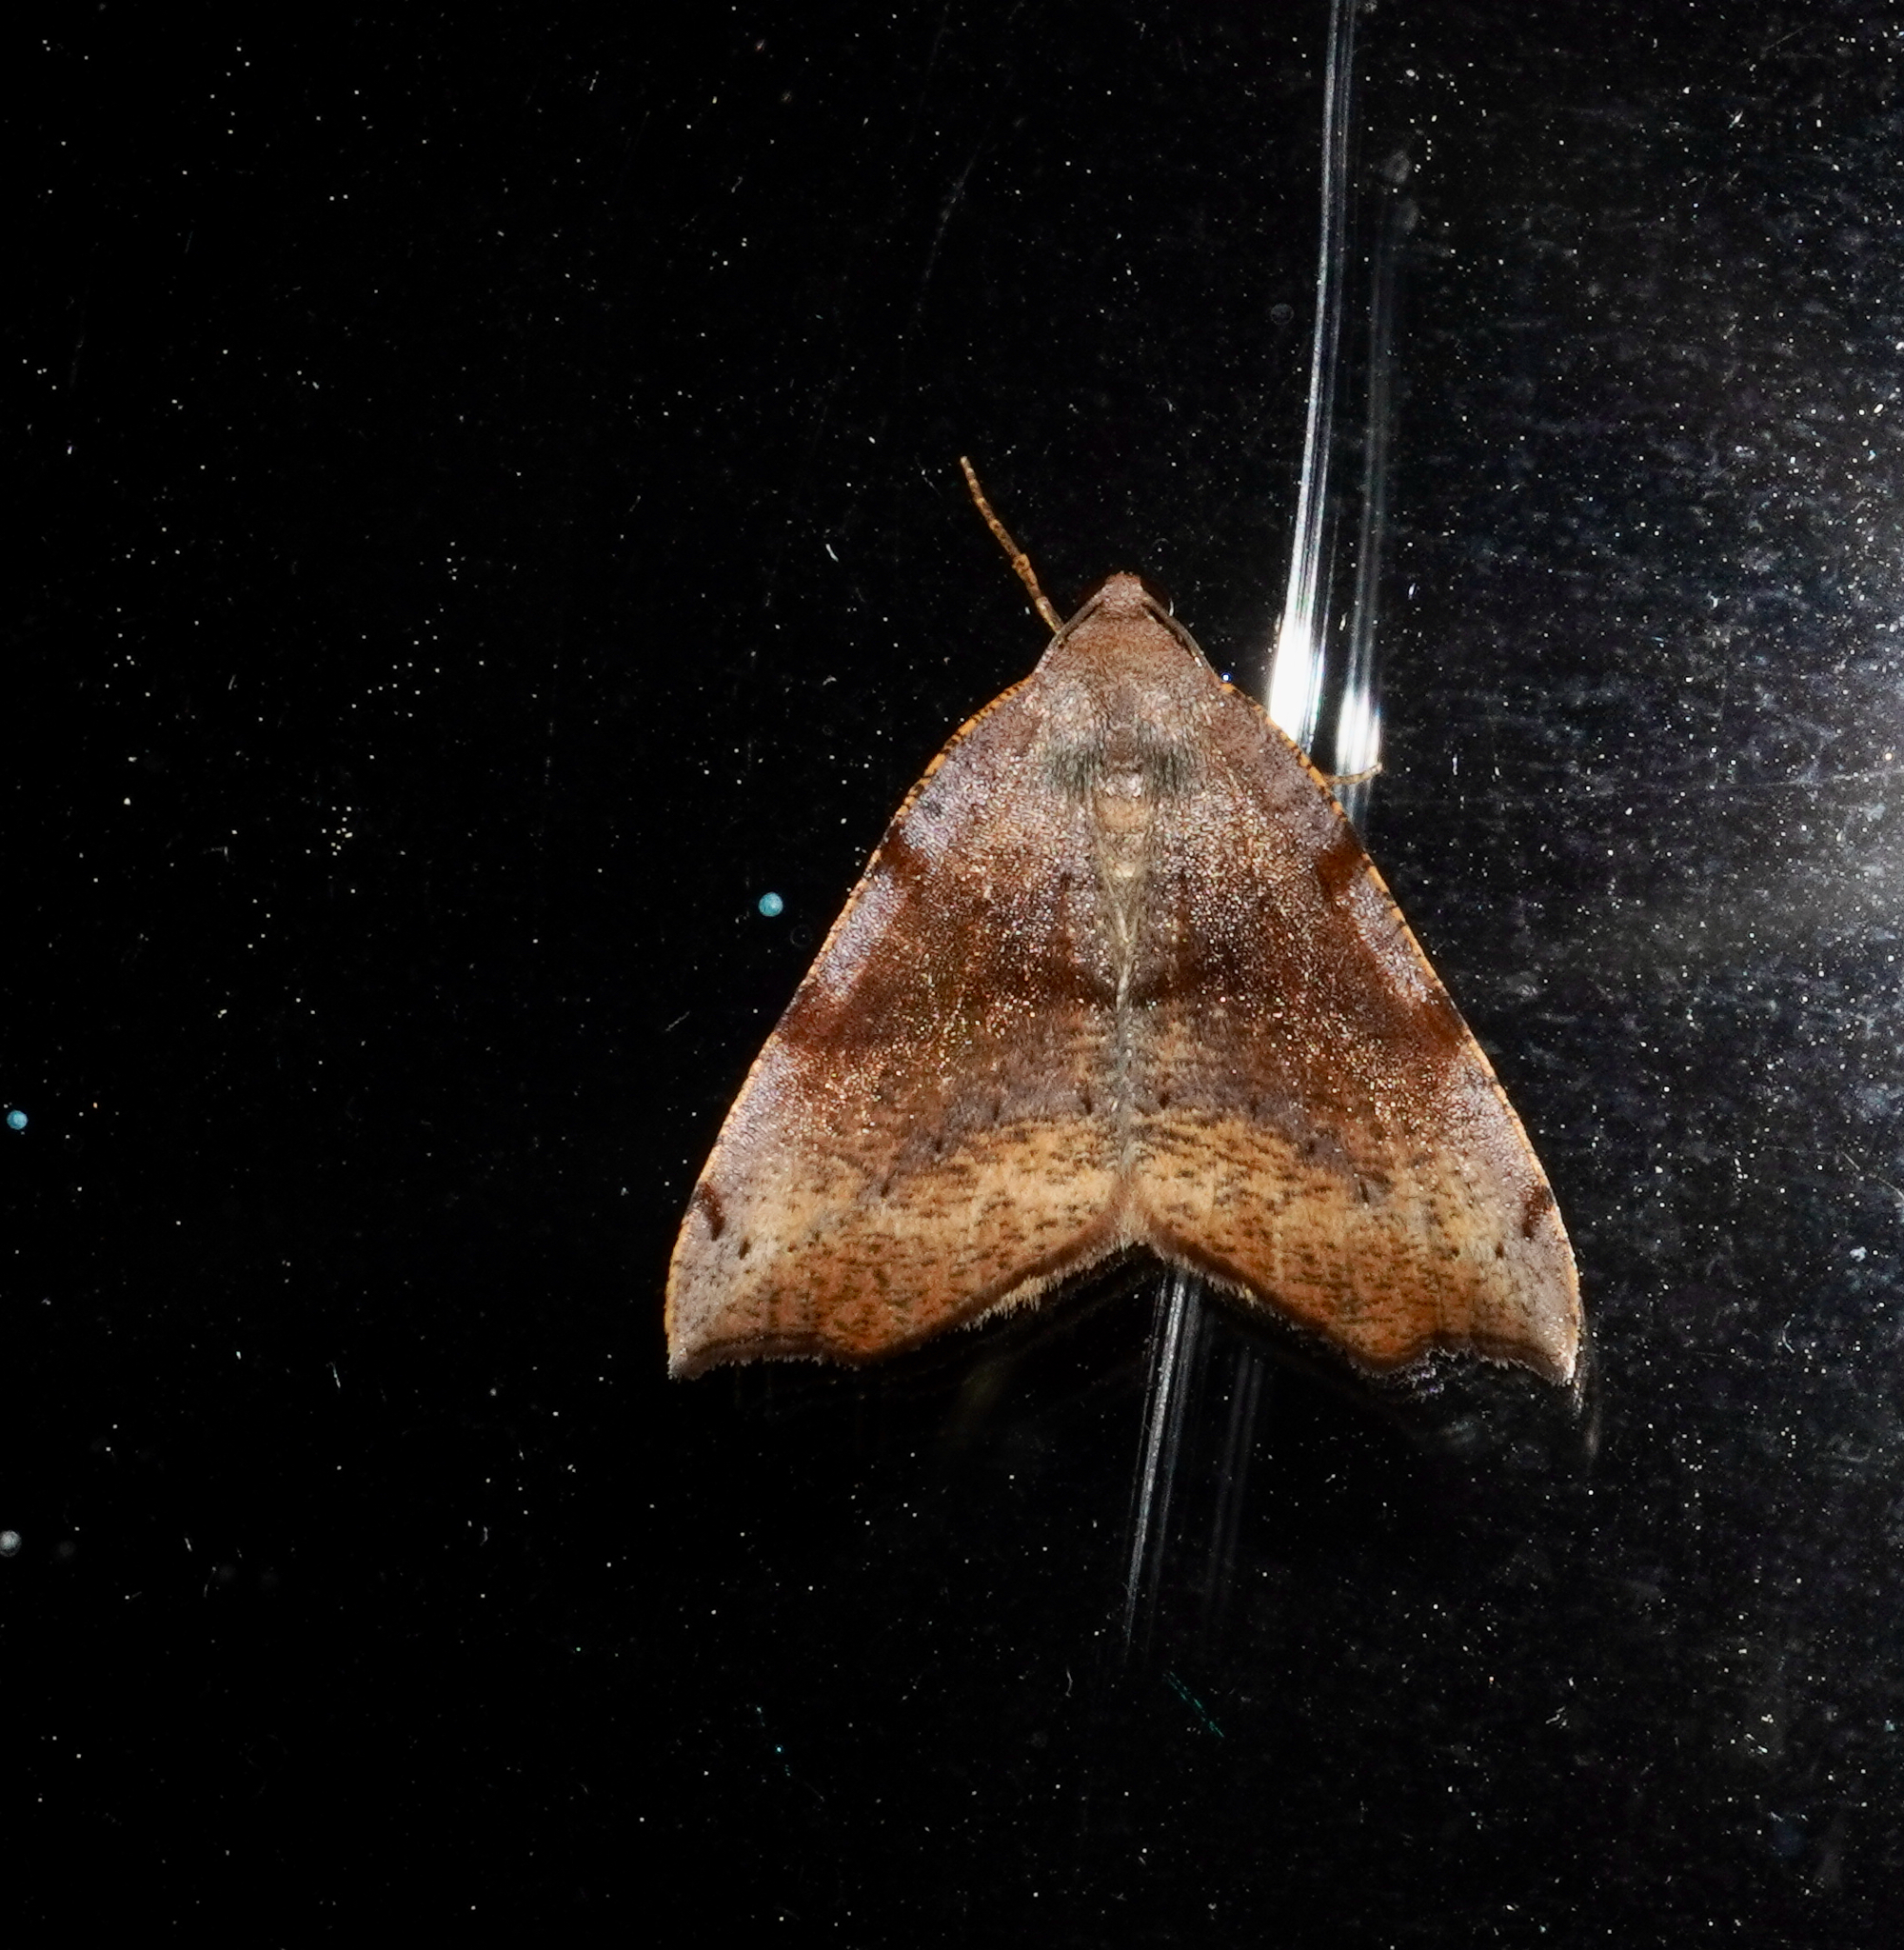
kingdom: Animalia
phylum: Arthropoda
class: Insecta
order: Lepidoptera
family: Geometridae
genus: Sestra
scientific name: Sestra flexata
